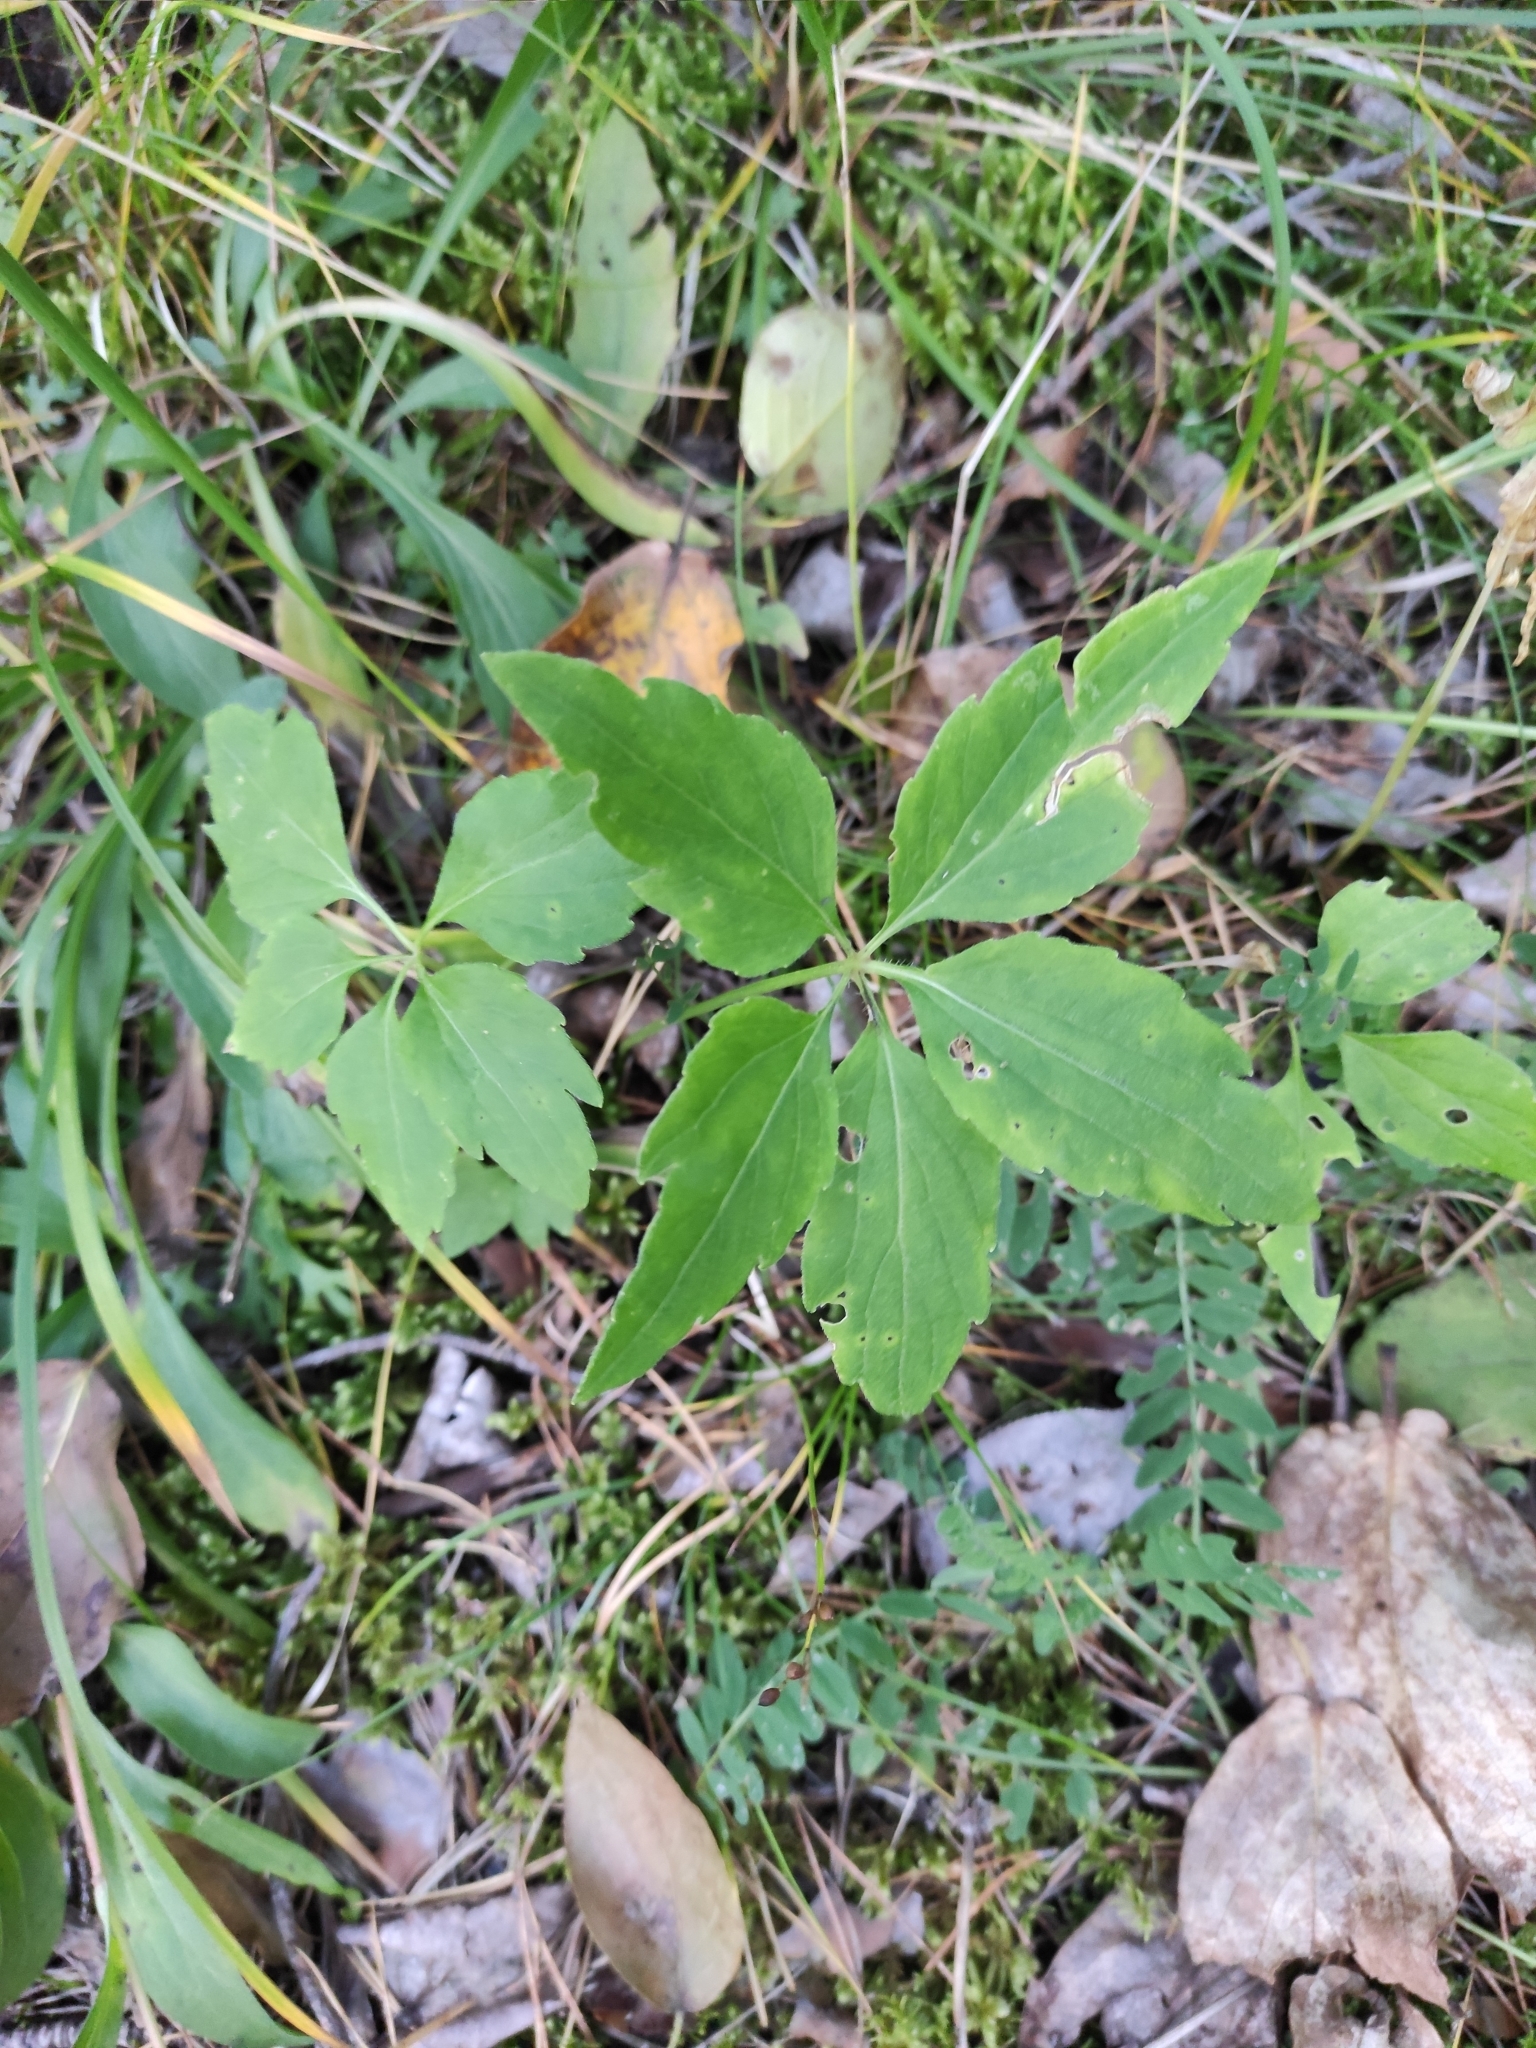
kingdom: Plantae
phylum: Tracheophyta
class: Magnoliopsida
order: Malpighiales
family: Violaceae
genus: Viola
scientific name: Viola dactyloides
